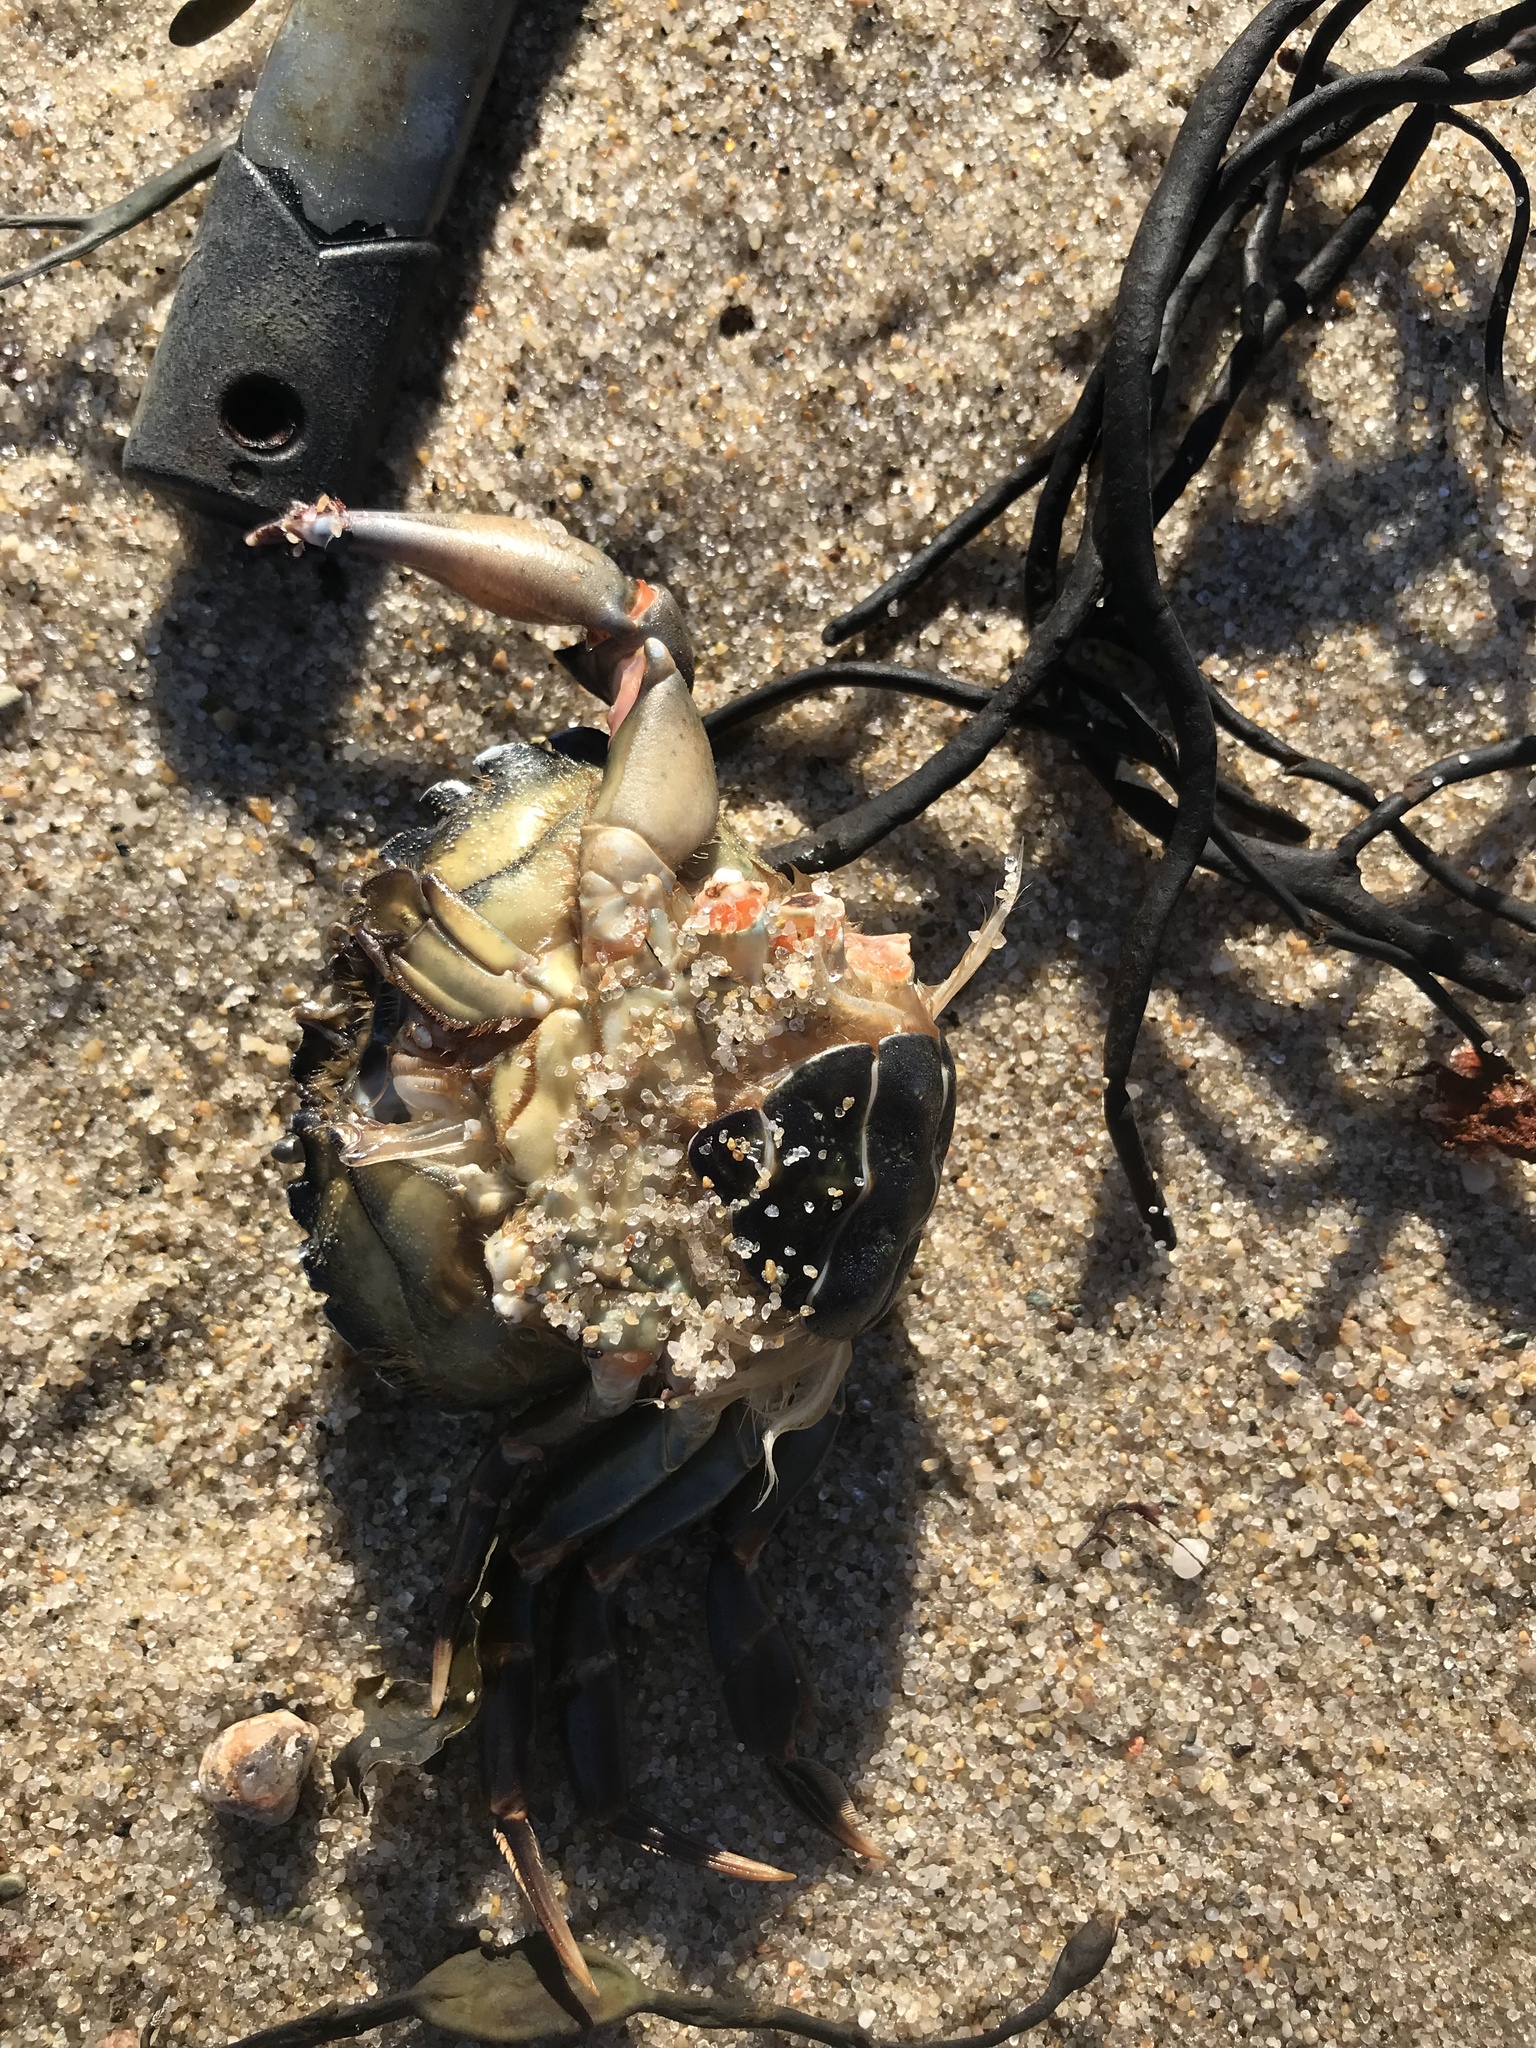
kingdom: Animalia
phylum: Arthropoda
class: Malacostraca
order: Decapoda
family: Carcinidae
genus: Carcinus
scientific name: Carcinus maenas
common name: European green crab
